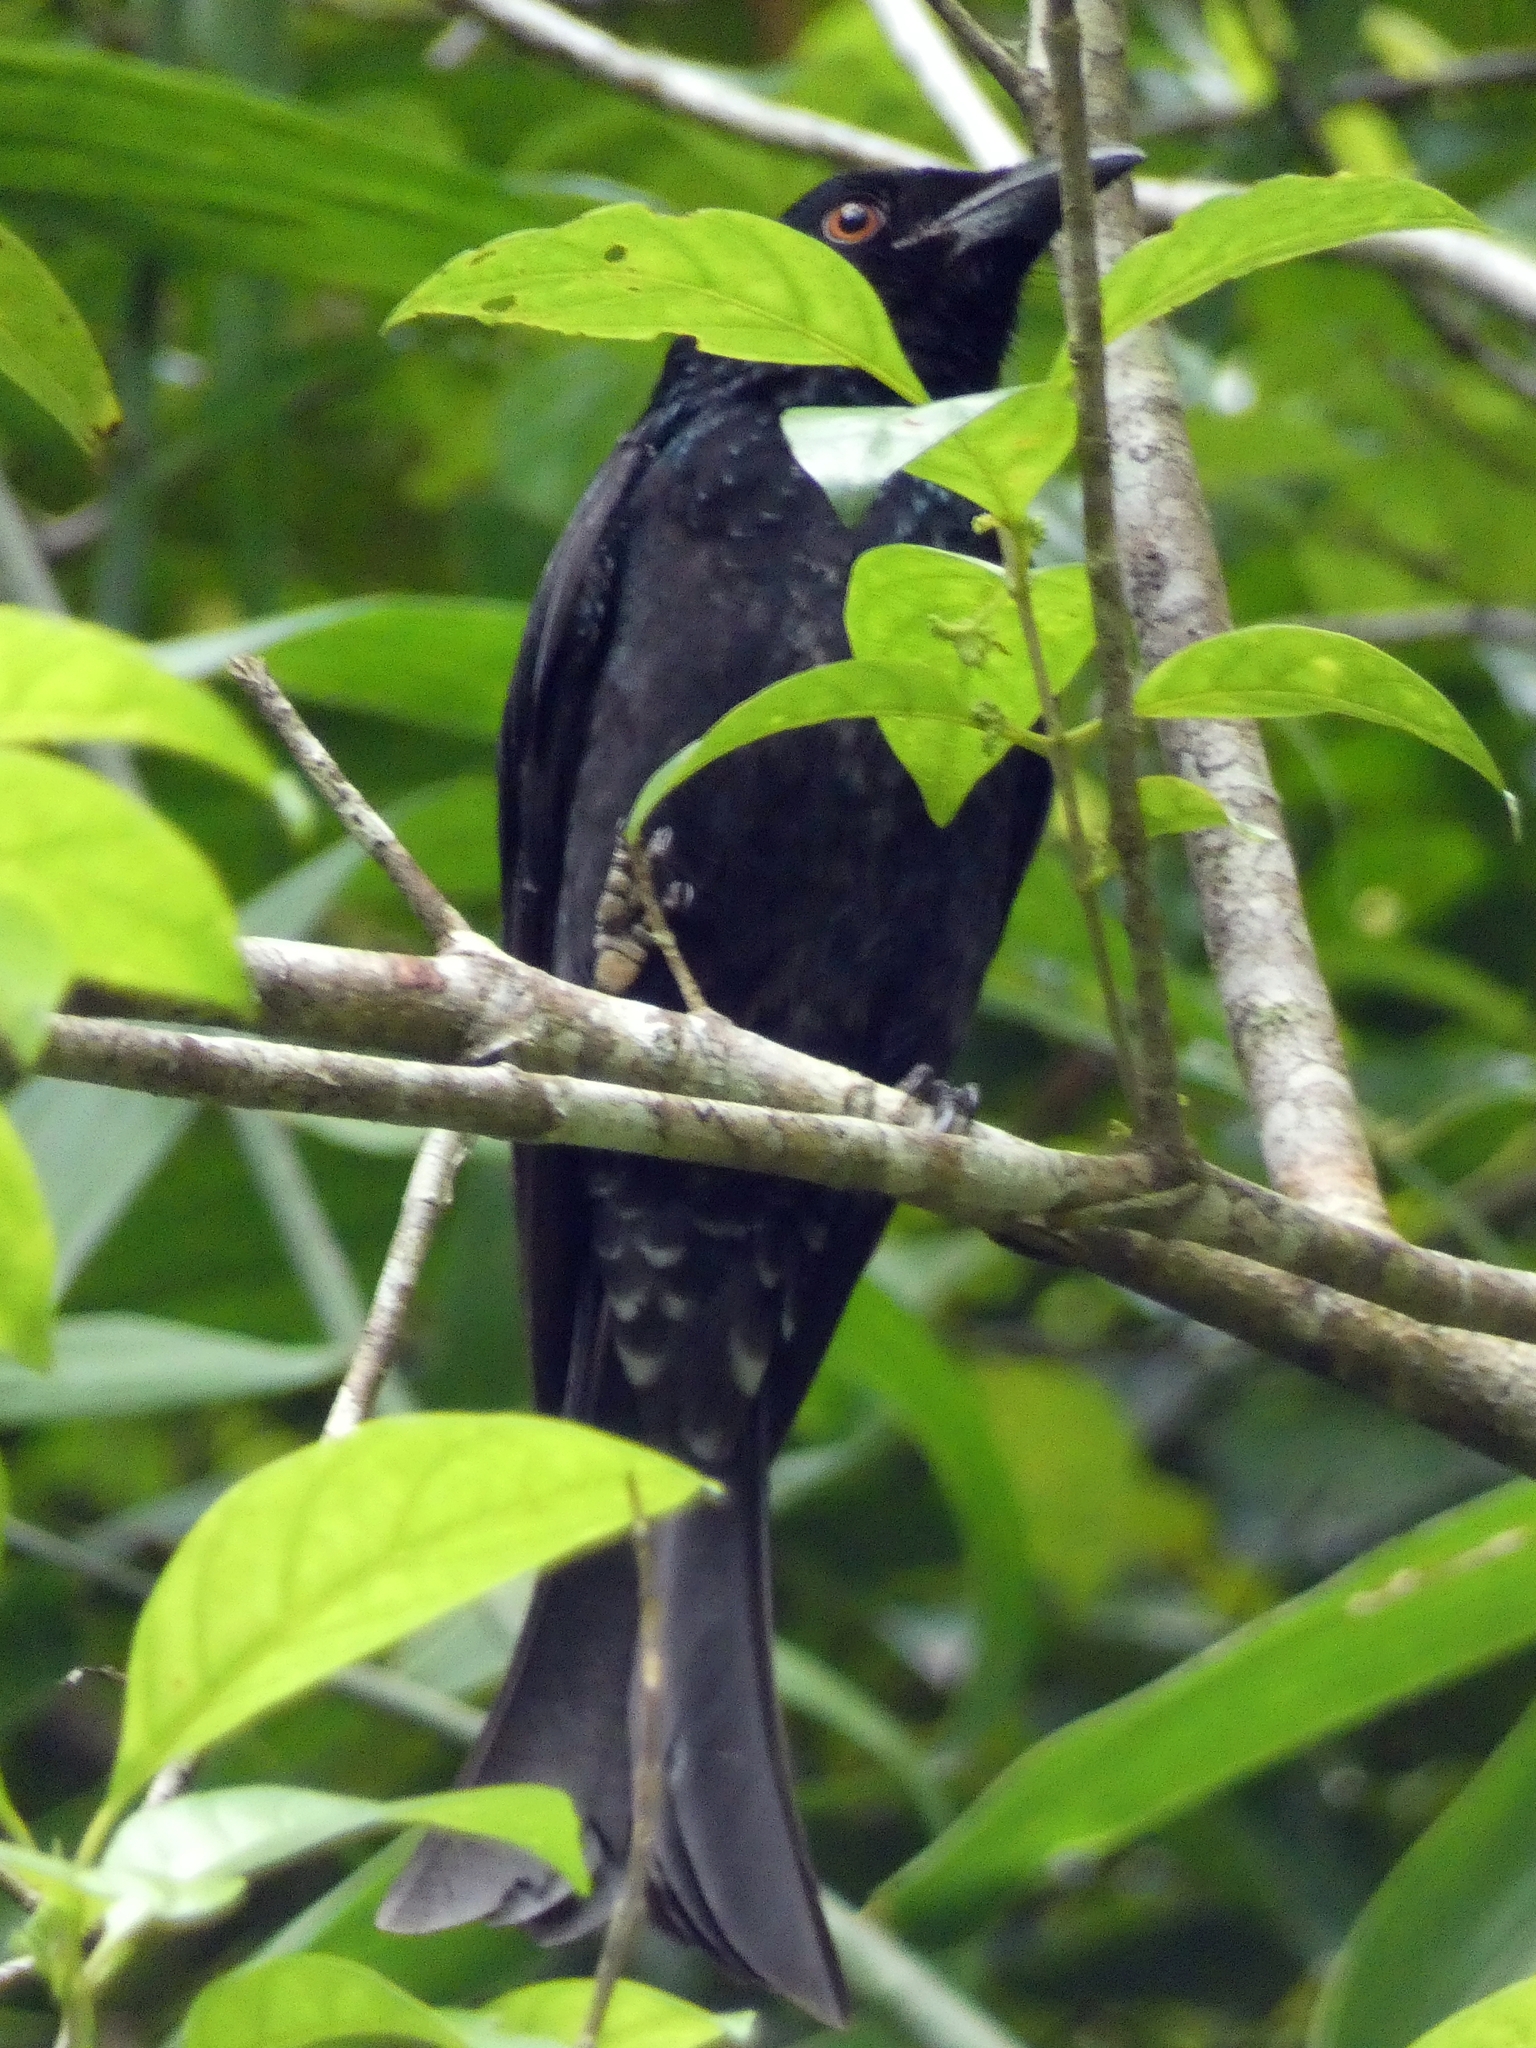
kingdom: Animalia
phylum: Chordata
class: Aves
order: Passeriformes
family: Dicruridae
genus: Dicrurus
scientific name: Dicrurus bracteatus
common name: Spangled drongo
